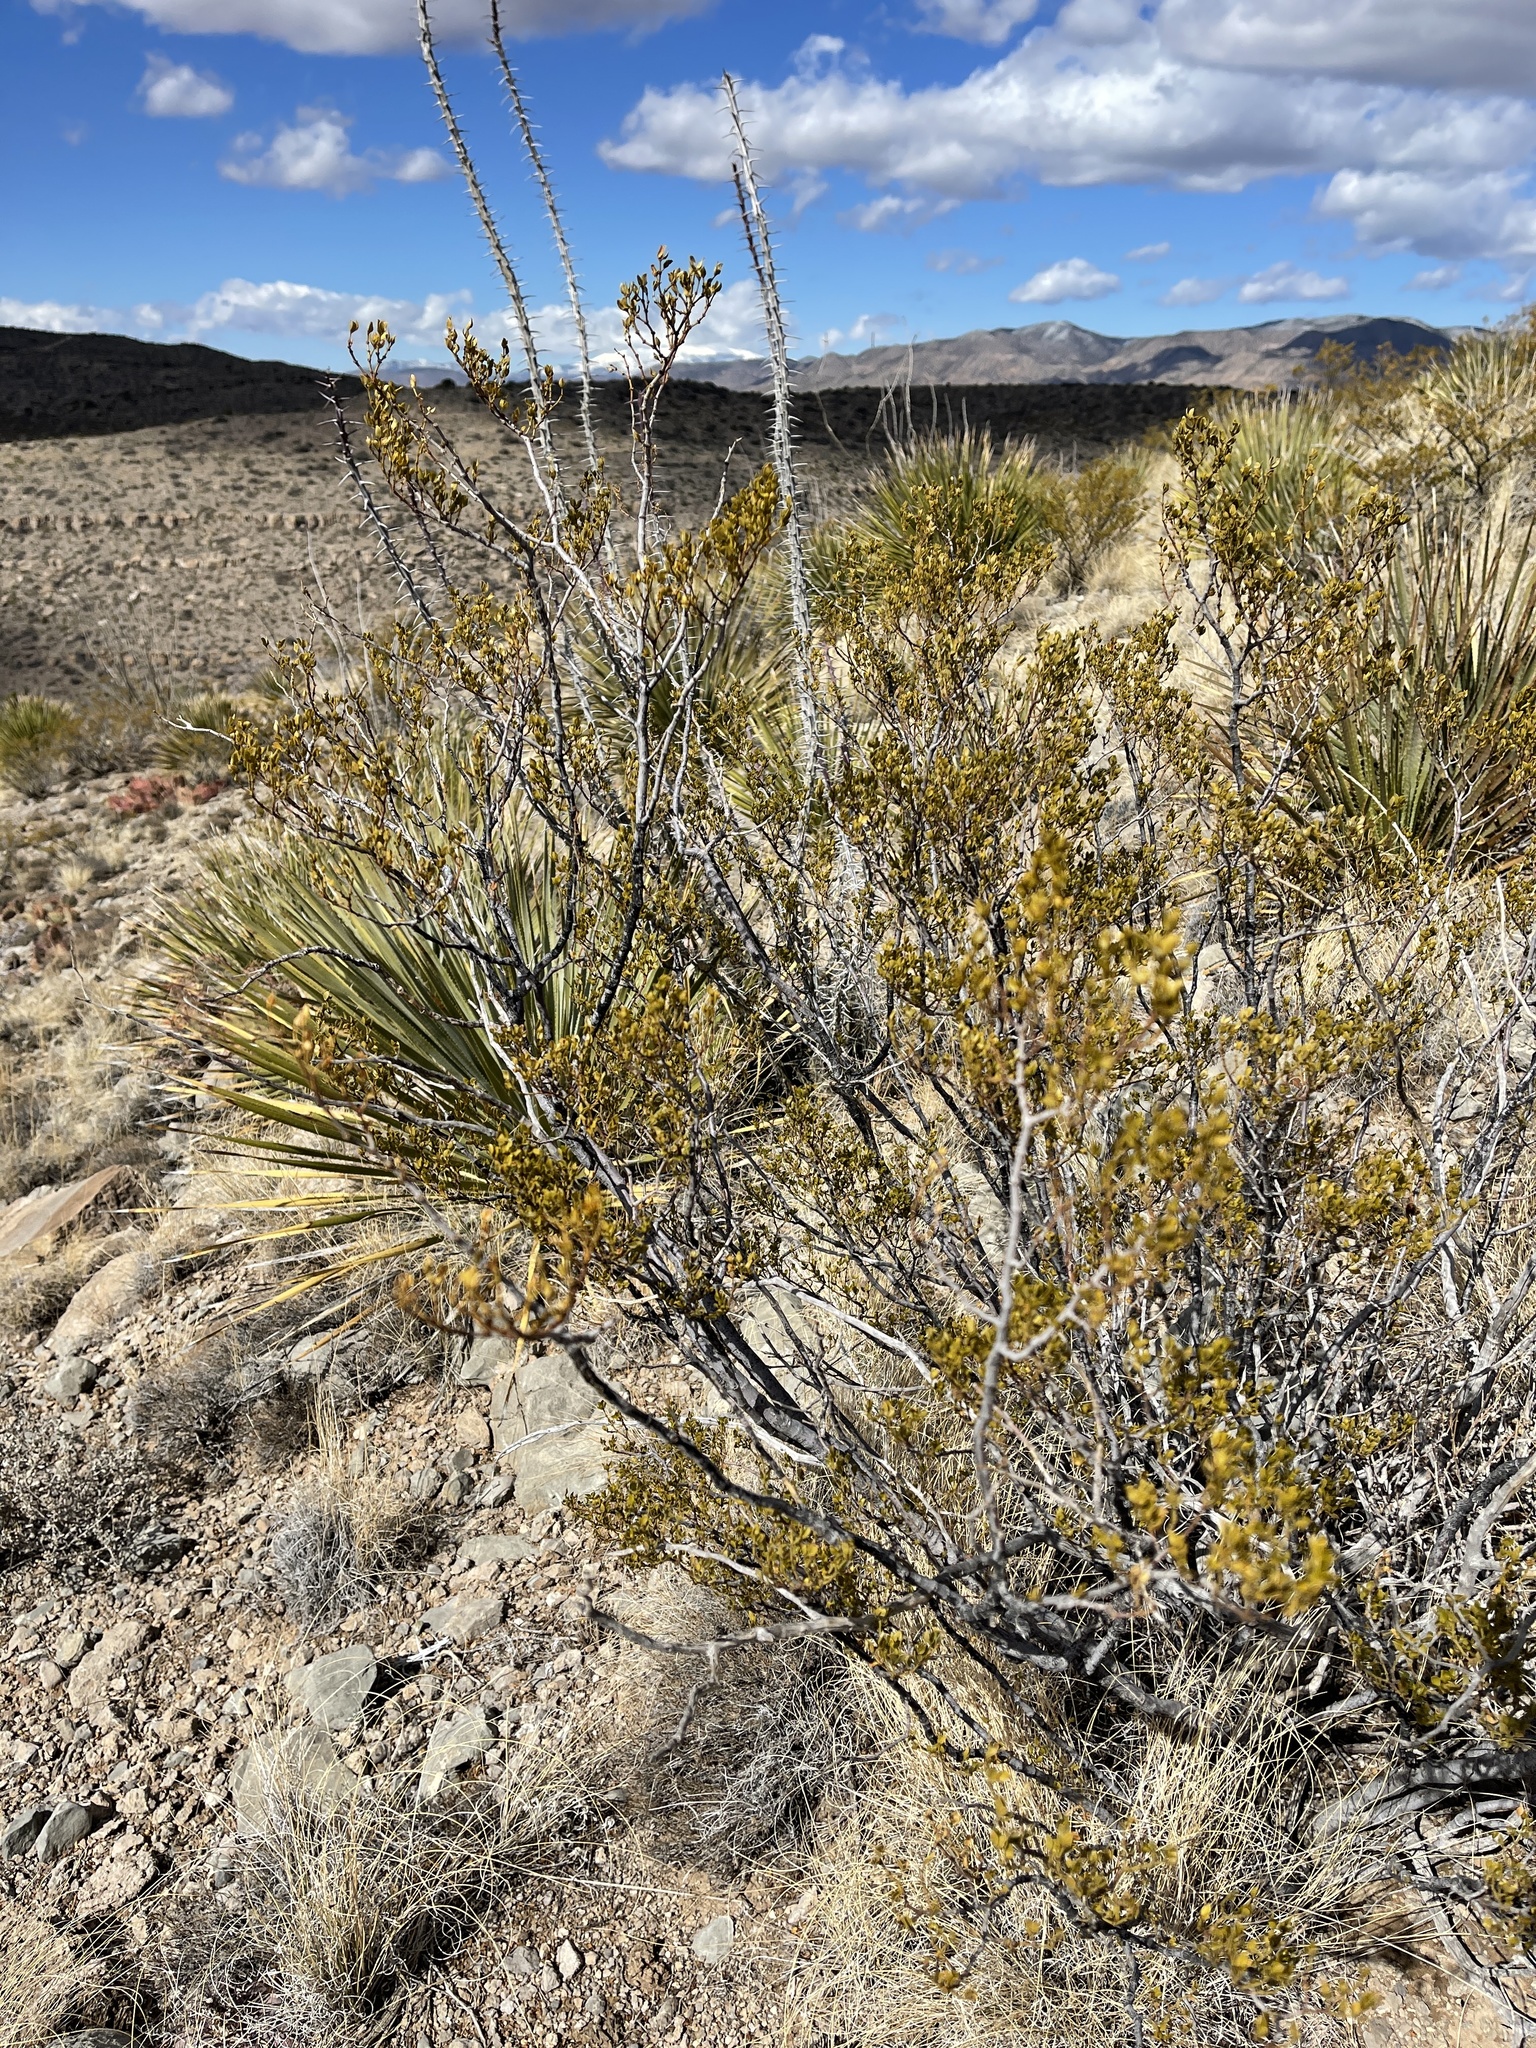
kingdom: Plantae
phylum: Tracheophyta
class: Magnoliopsida
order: Zygophyllales
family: Zygophyllaceae
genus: Larrea
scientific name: Larrea tridentata
